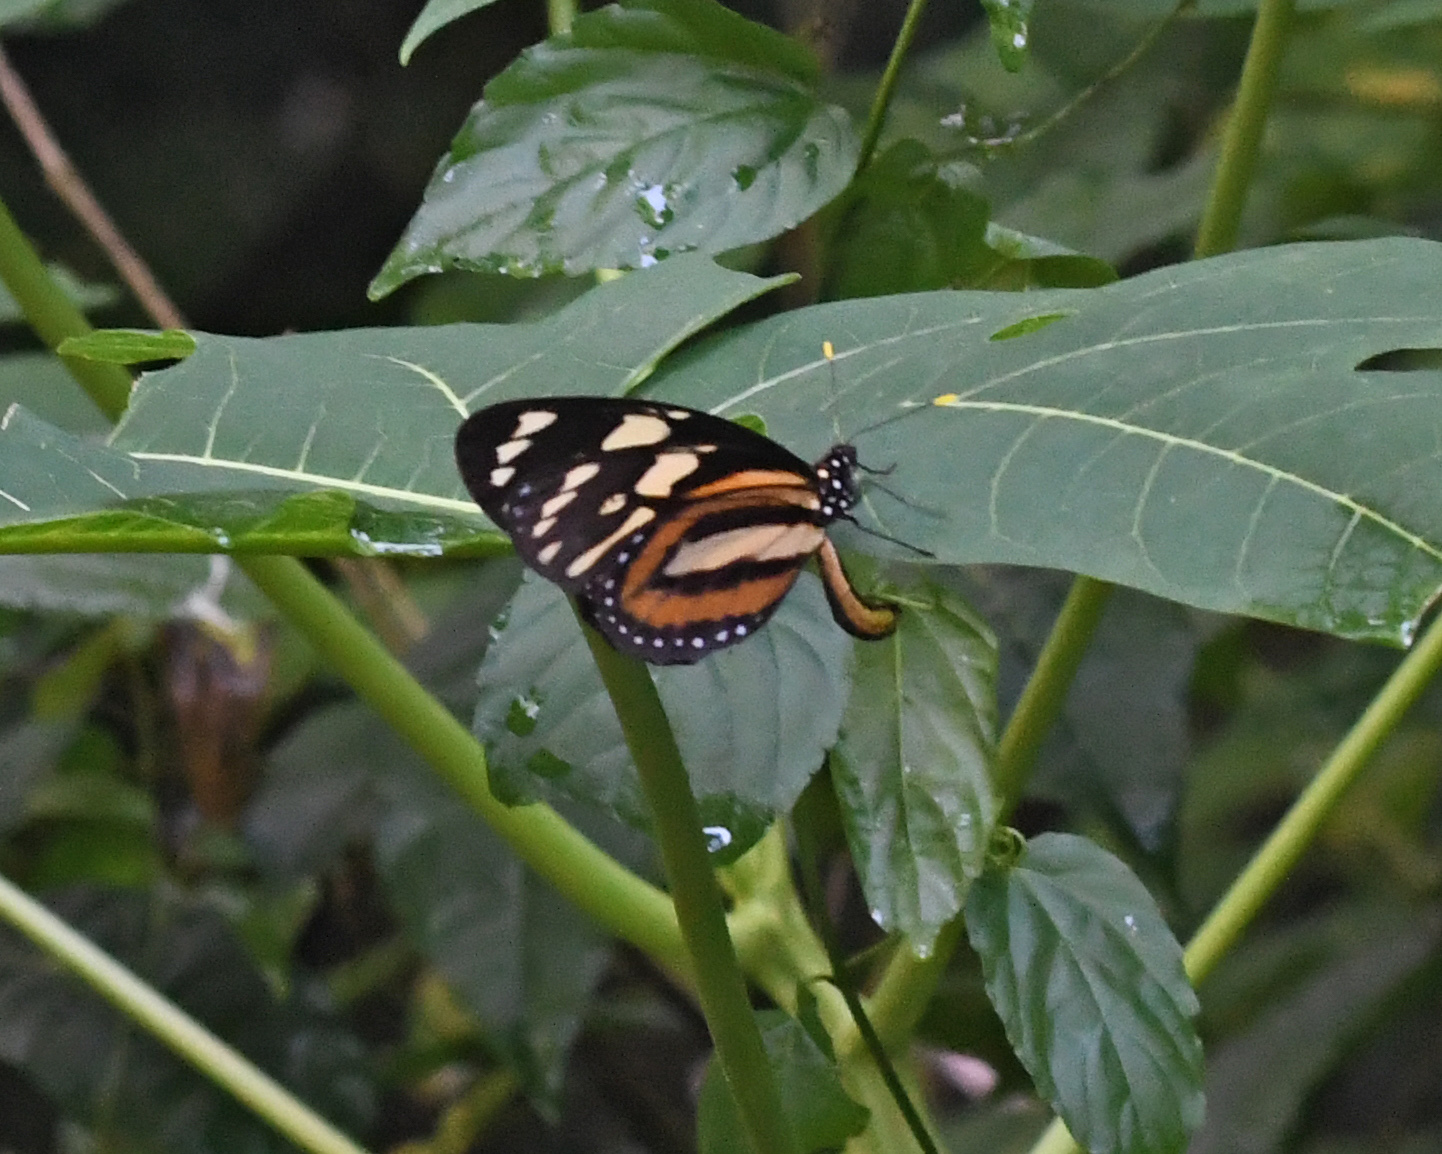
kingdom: Animalia
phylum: Arthropoda
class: Insecta
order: Lepidoptera
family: Nymphalidae
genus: Lycorea
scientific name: Lycorea cleobaea
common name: Tiger mimic-queen
